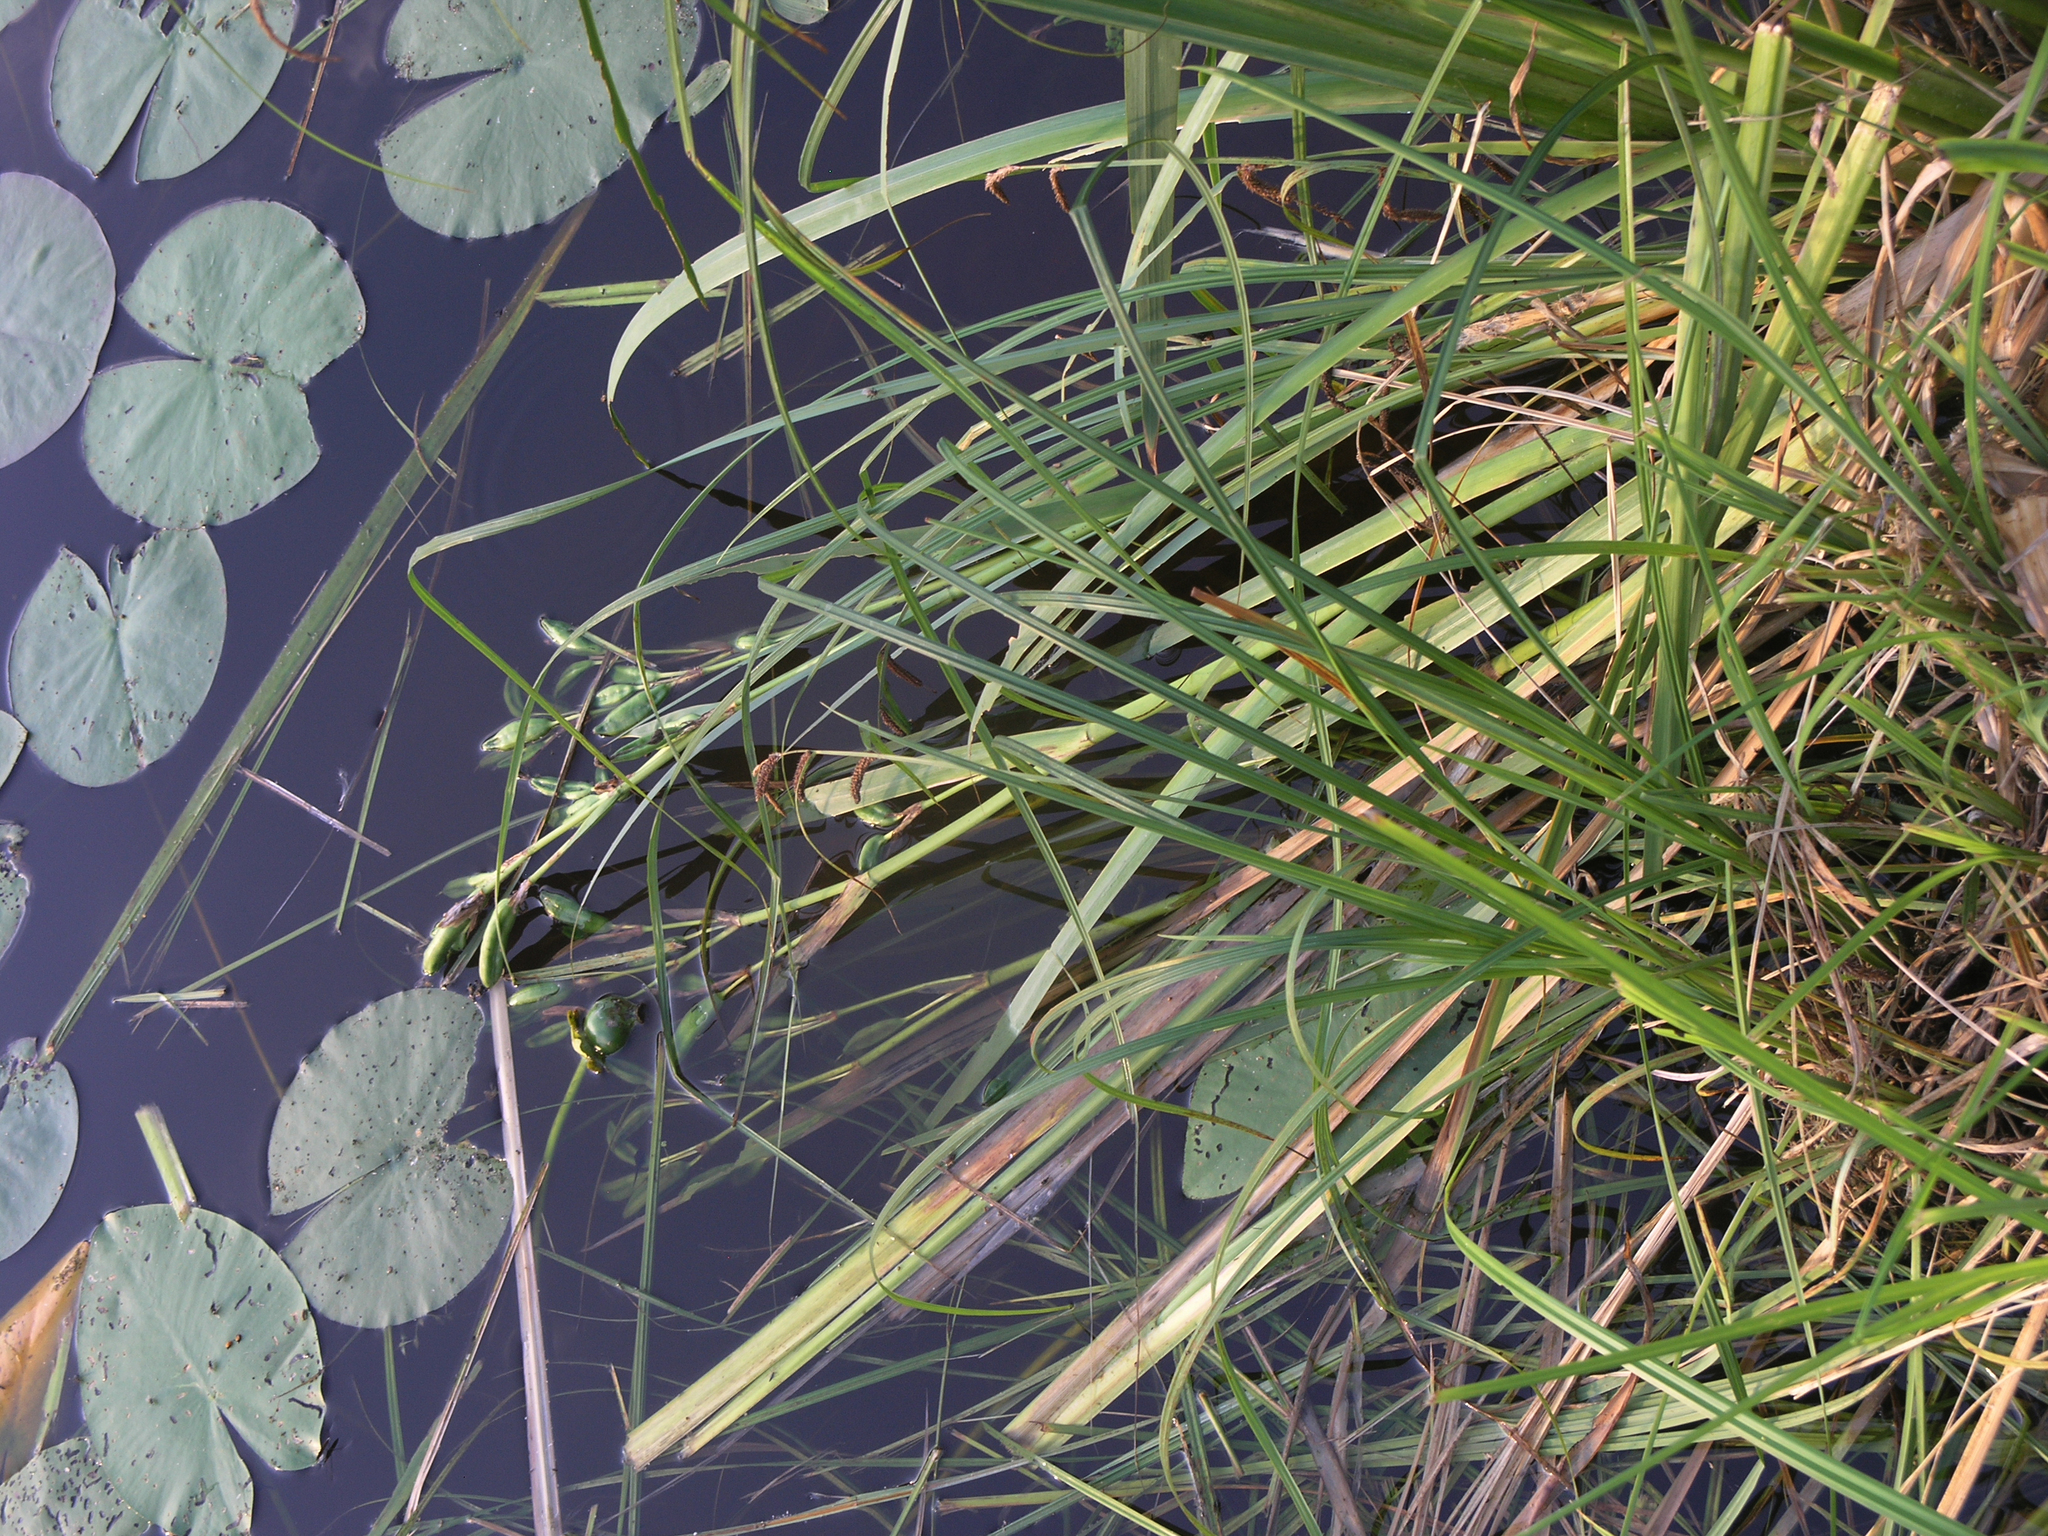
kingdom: Plantae
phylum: Tracheophyta
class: Liliopsida
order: Asparagales
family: Iridaceae
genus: Iris
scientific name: Iris pseudacorus
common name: Yellow flag
